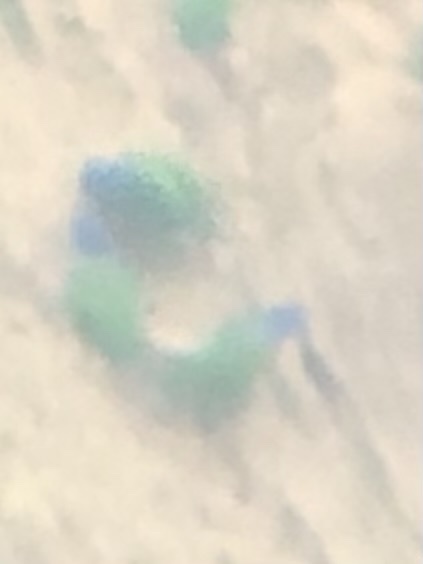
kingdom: Animalia
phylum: Chordata
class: Aves
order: Psittaciformes
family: Psittacidae
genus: Pionus
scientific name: Pionus menstruus
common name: Blue-headed parrot
